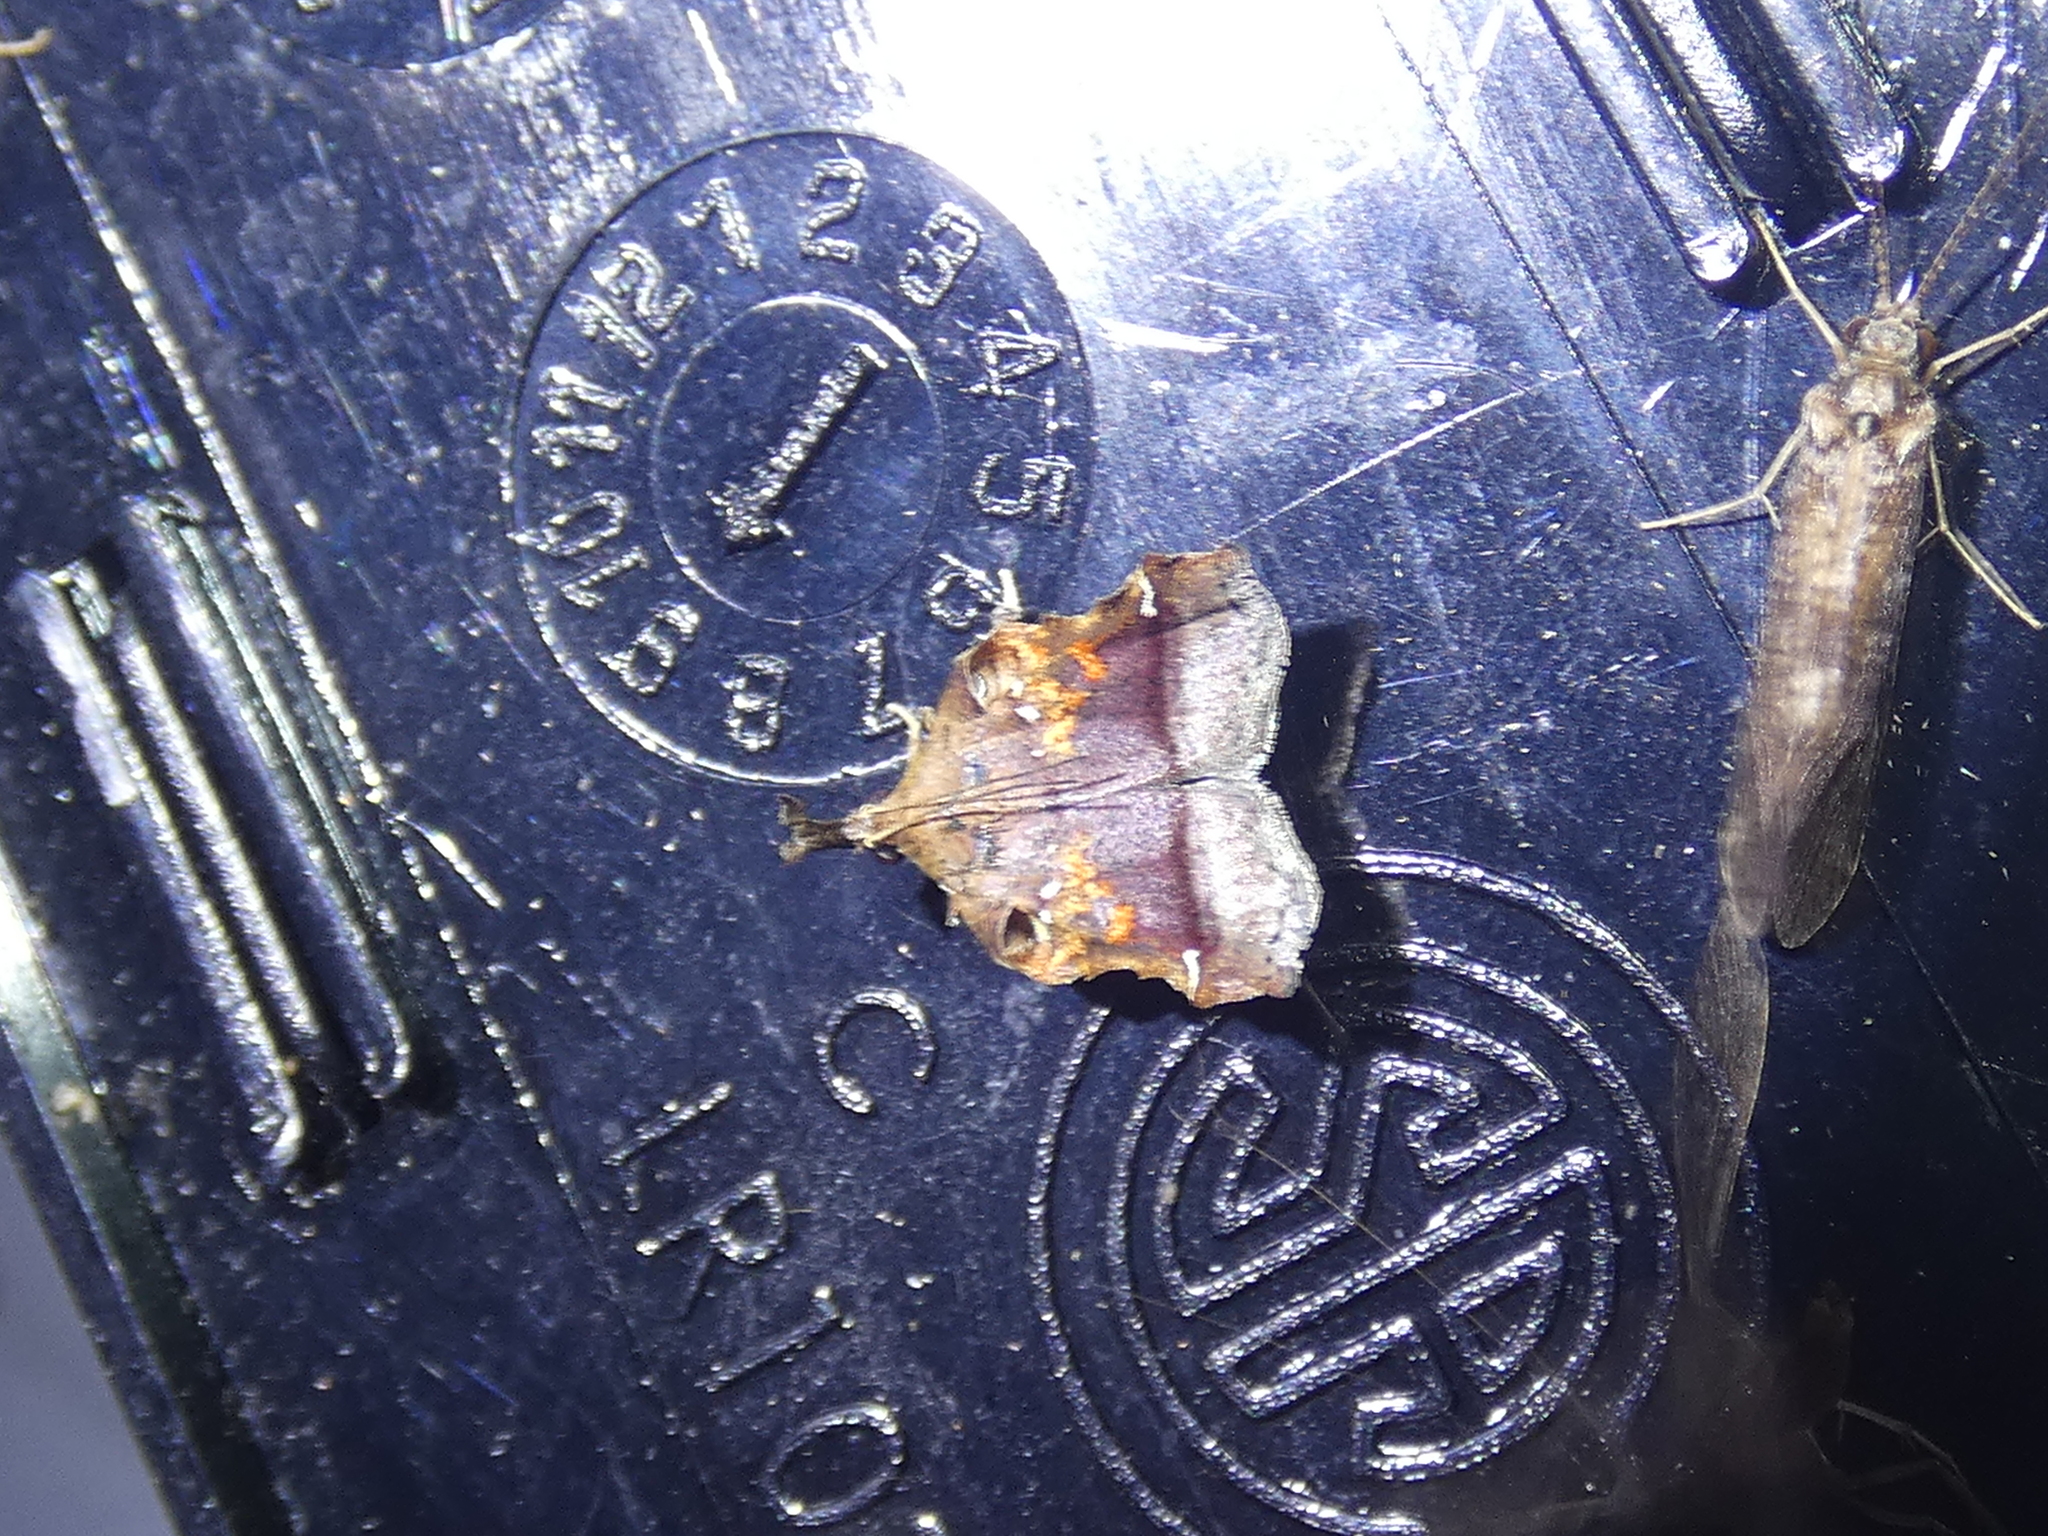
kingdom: Animalia
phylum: Arthropoda
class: Insecta
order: Lepidoptera
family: Pyralidae
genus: Clydonopteron
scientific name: Clydonopteron sacculana
